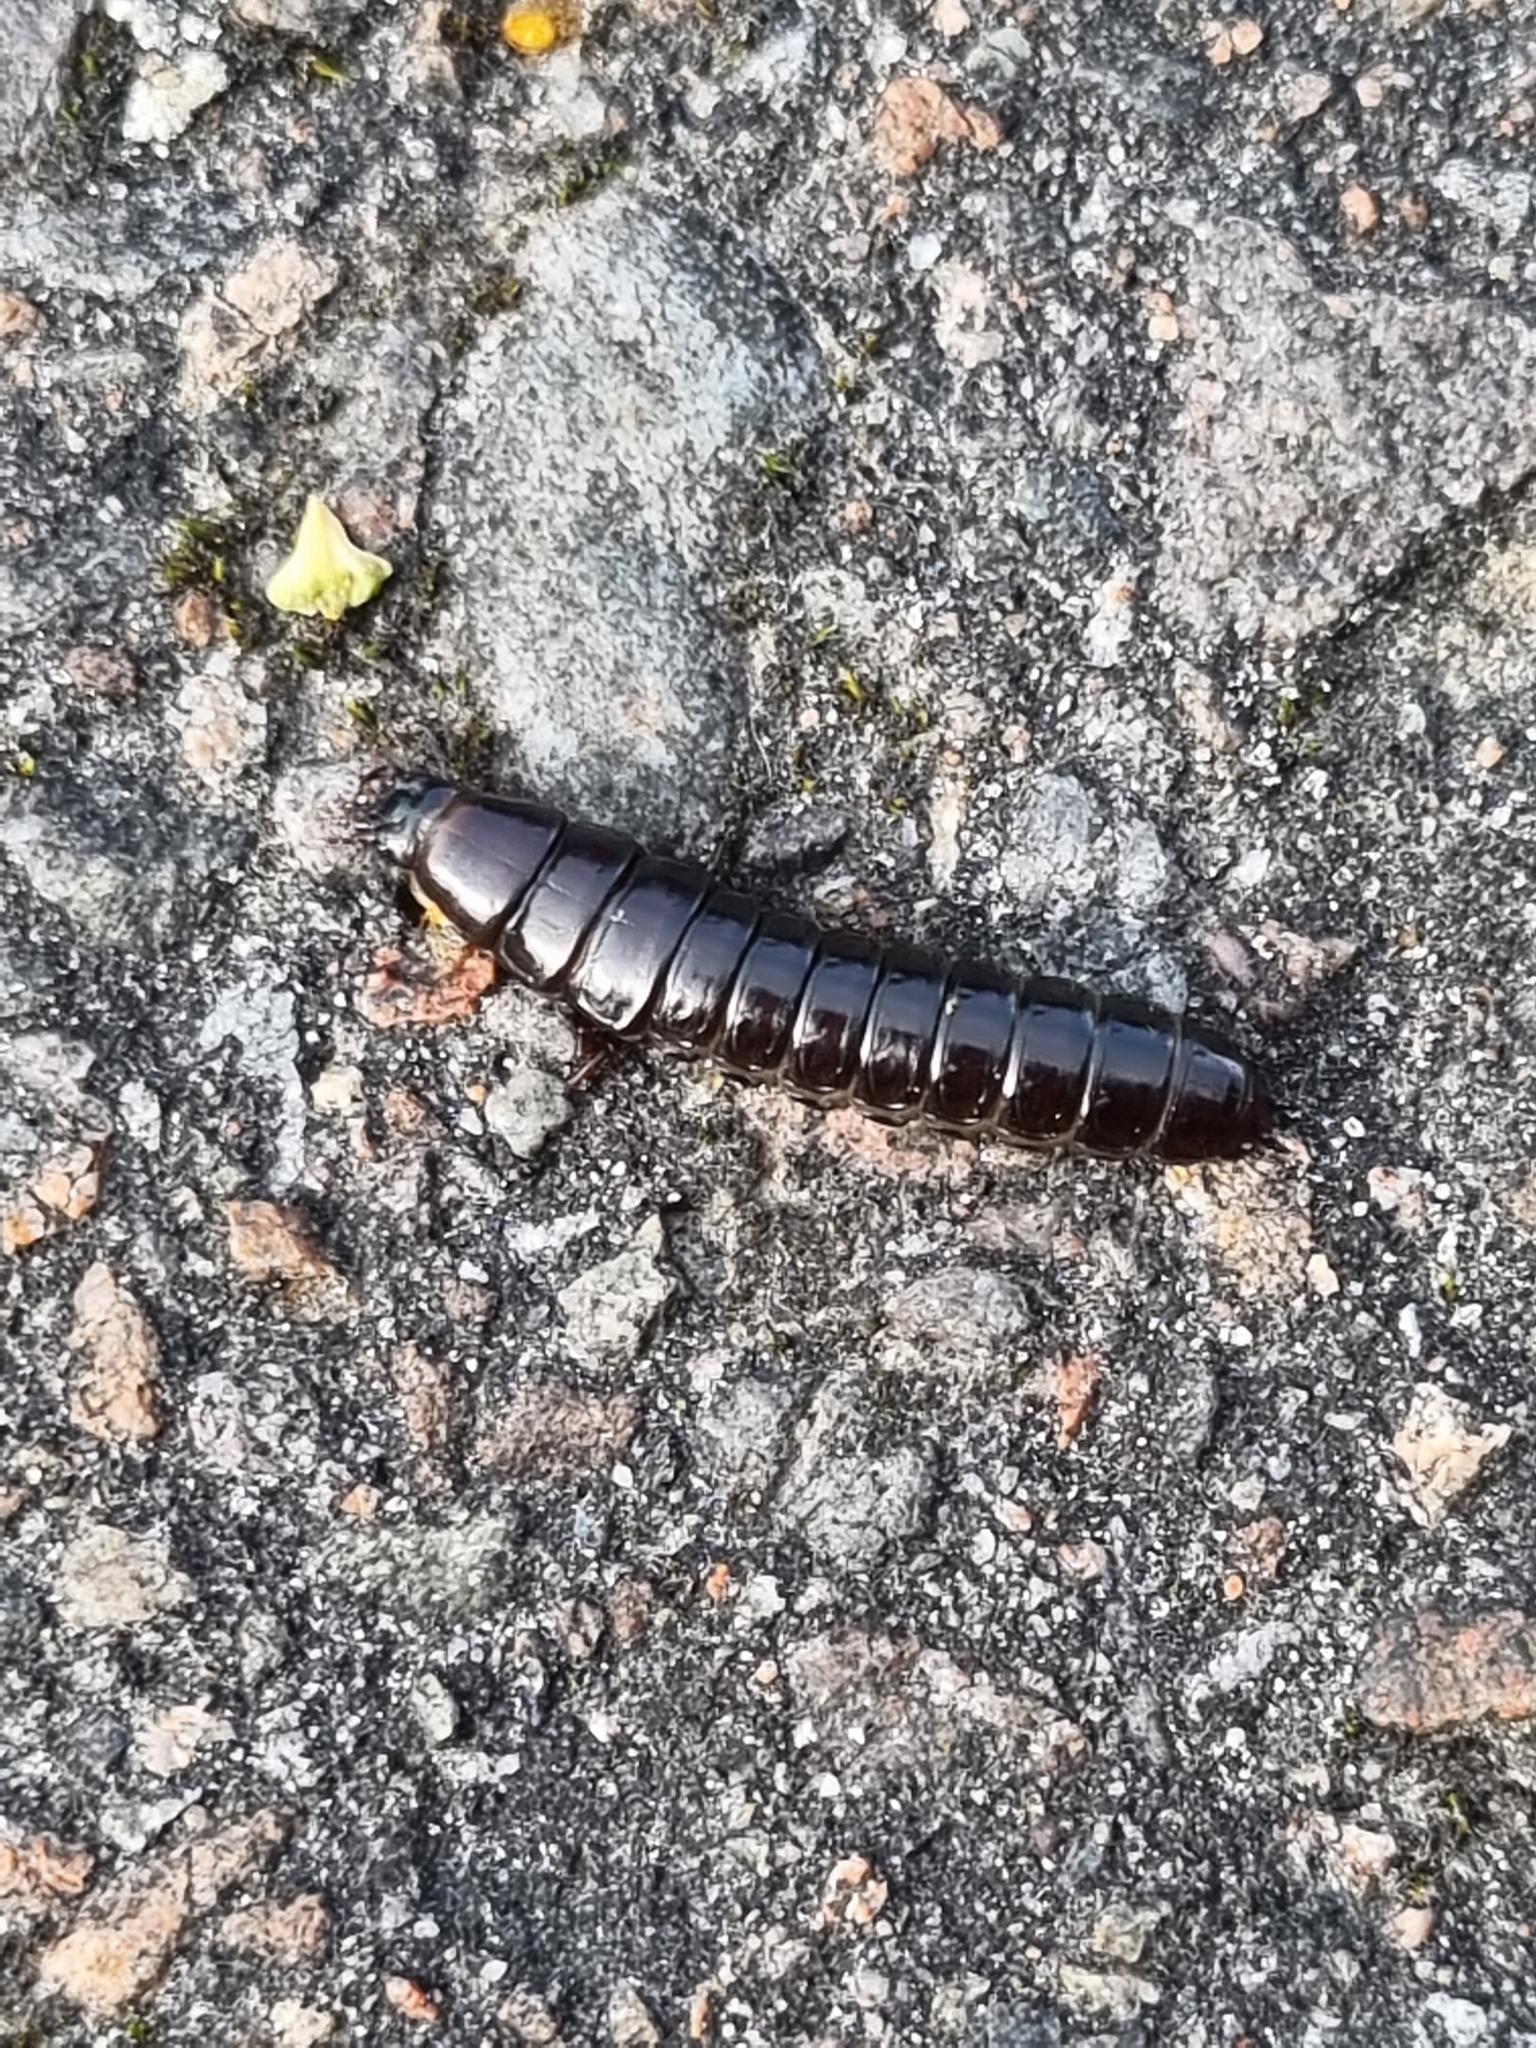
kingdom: Animalia
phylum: Arthropoda
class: Insecta
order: Coleoptera
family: Carabidae
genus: Carabus
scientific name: Carabus
